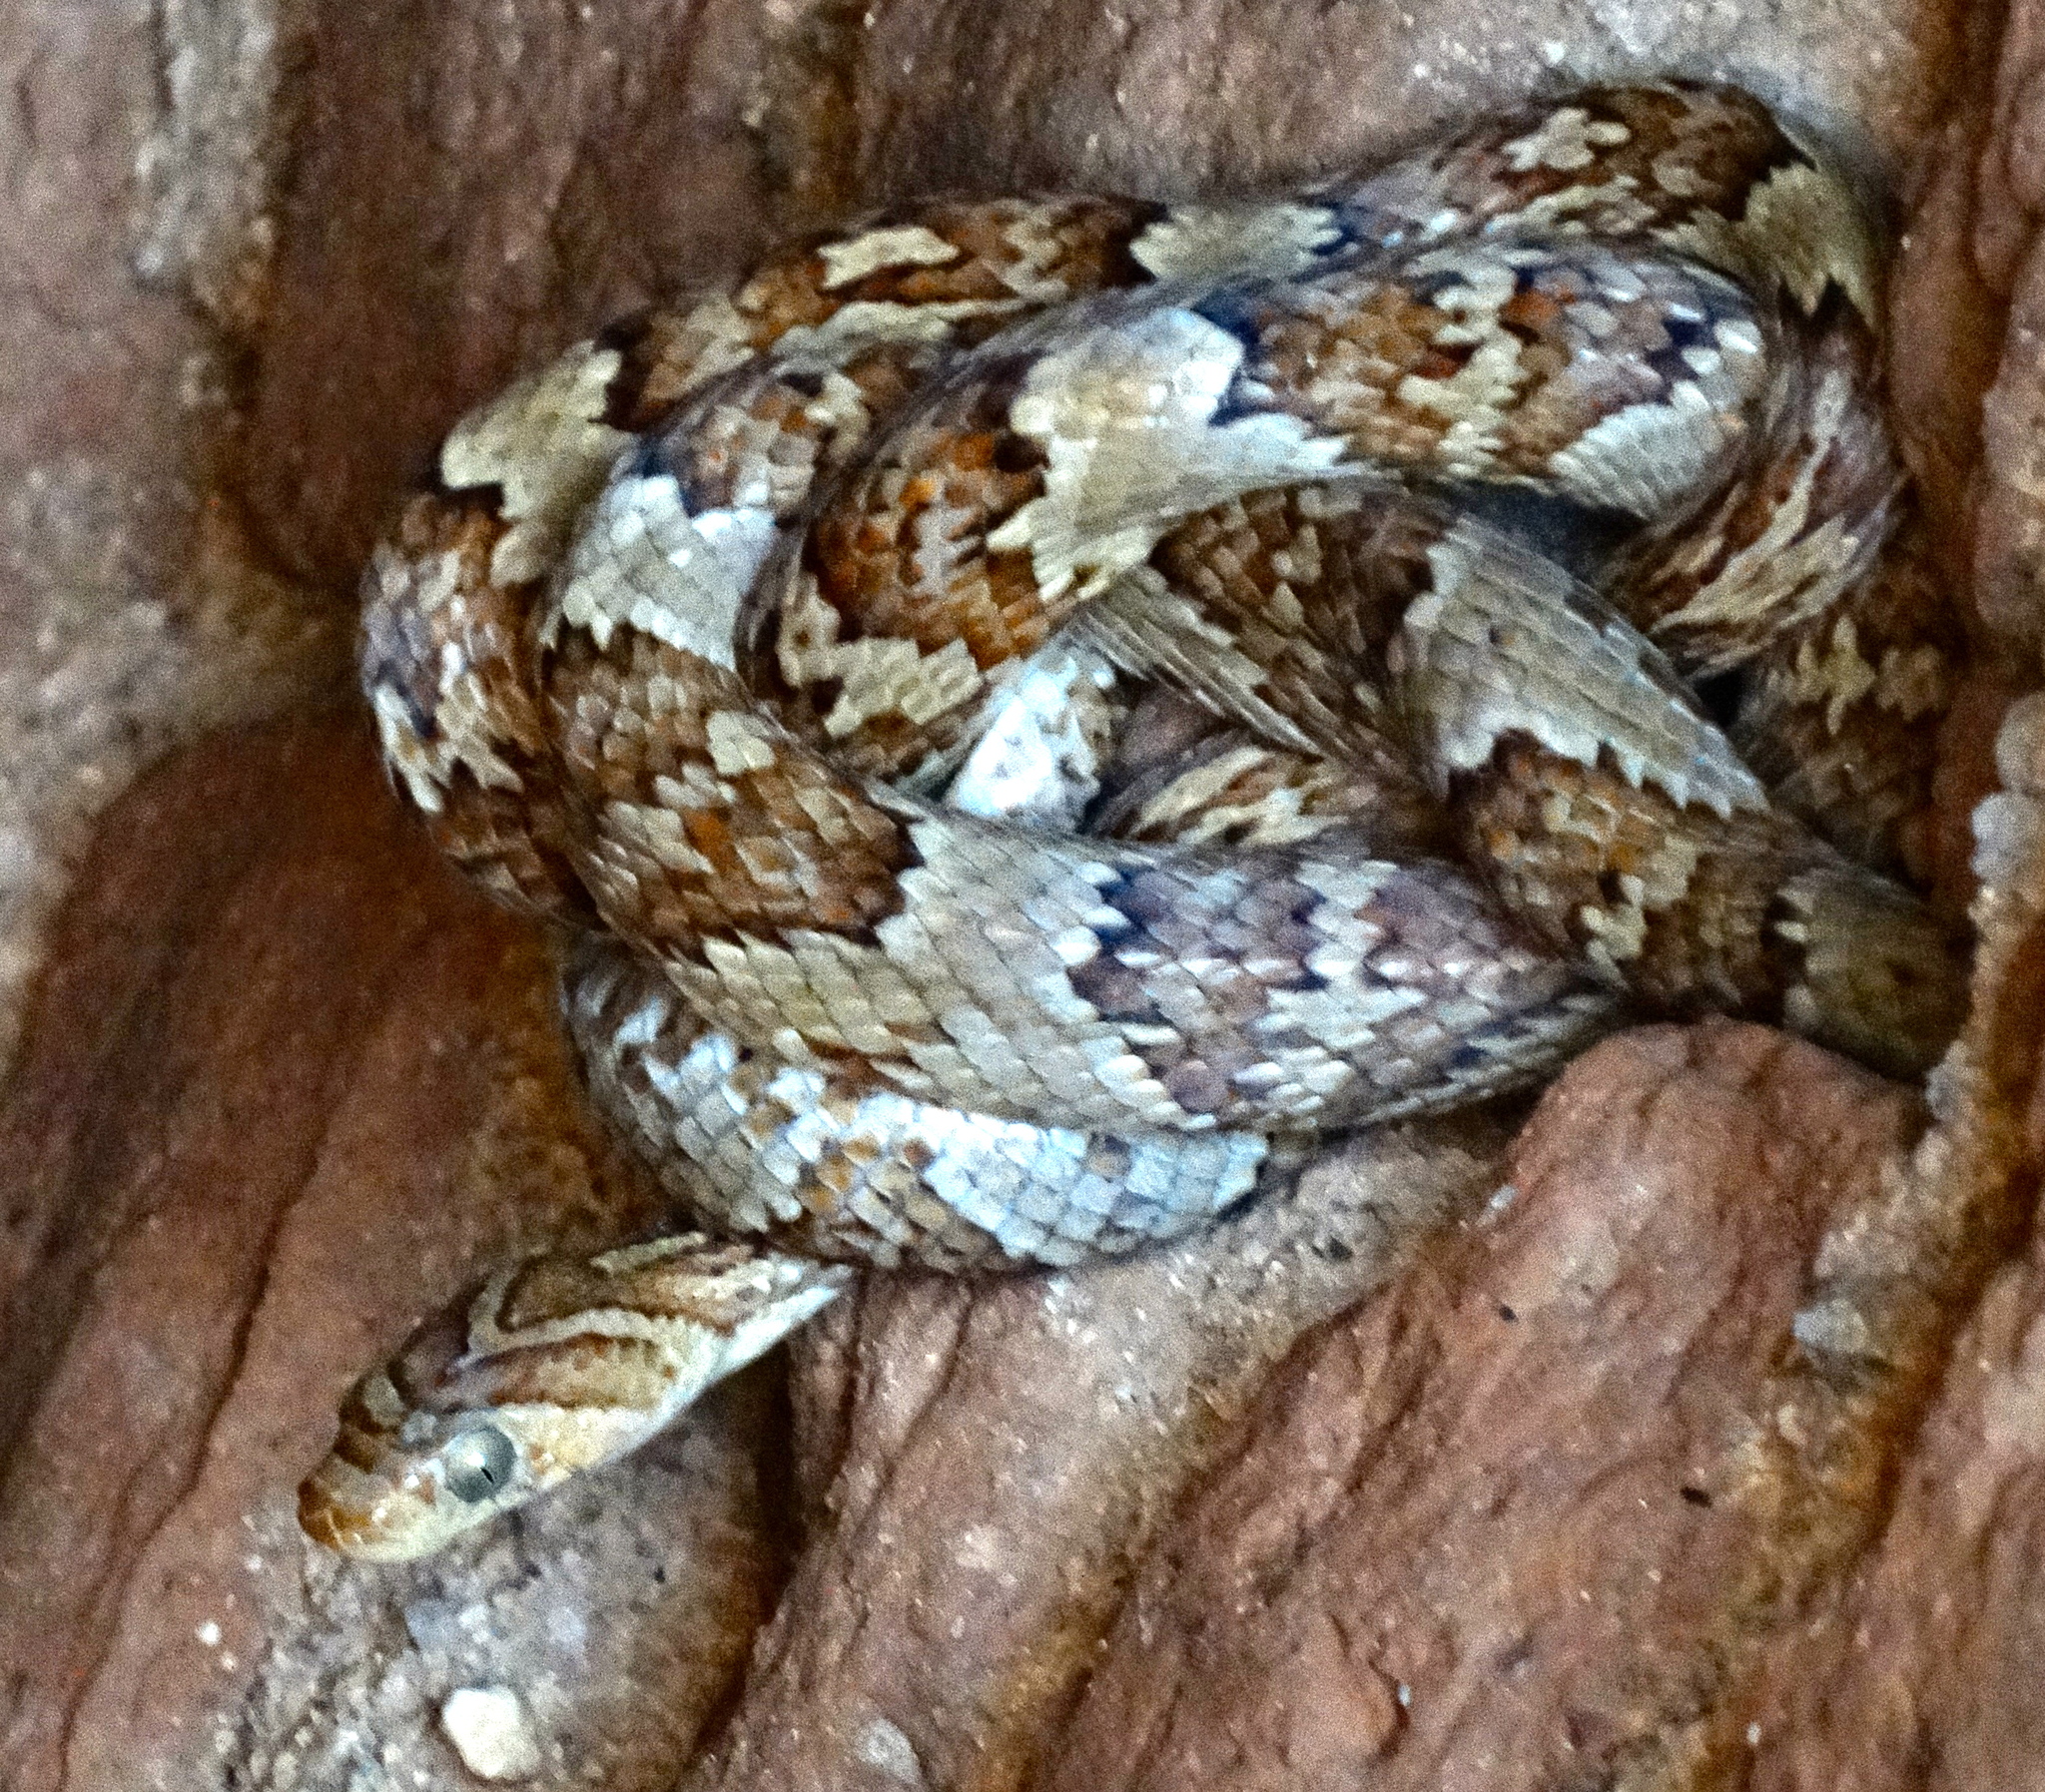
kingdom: Animalia
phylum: Chordata
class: Squamata
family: Colubridae
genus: Trimorphodon
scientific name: Trimorphodon paucimaculatus
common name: Sinaloan lyresnake
